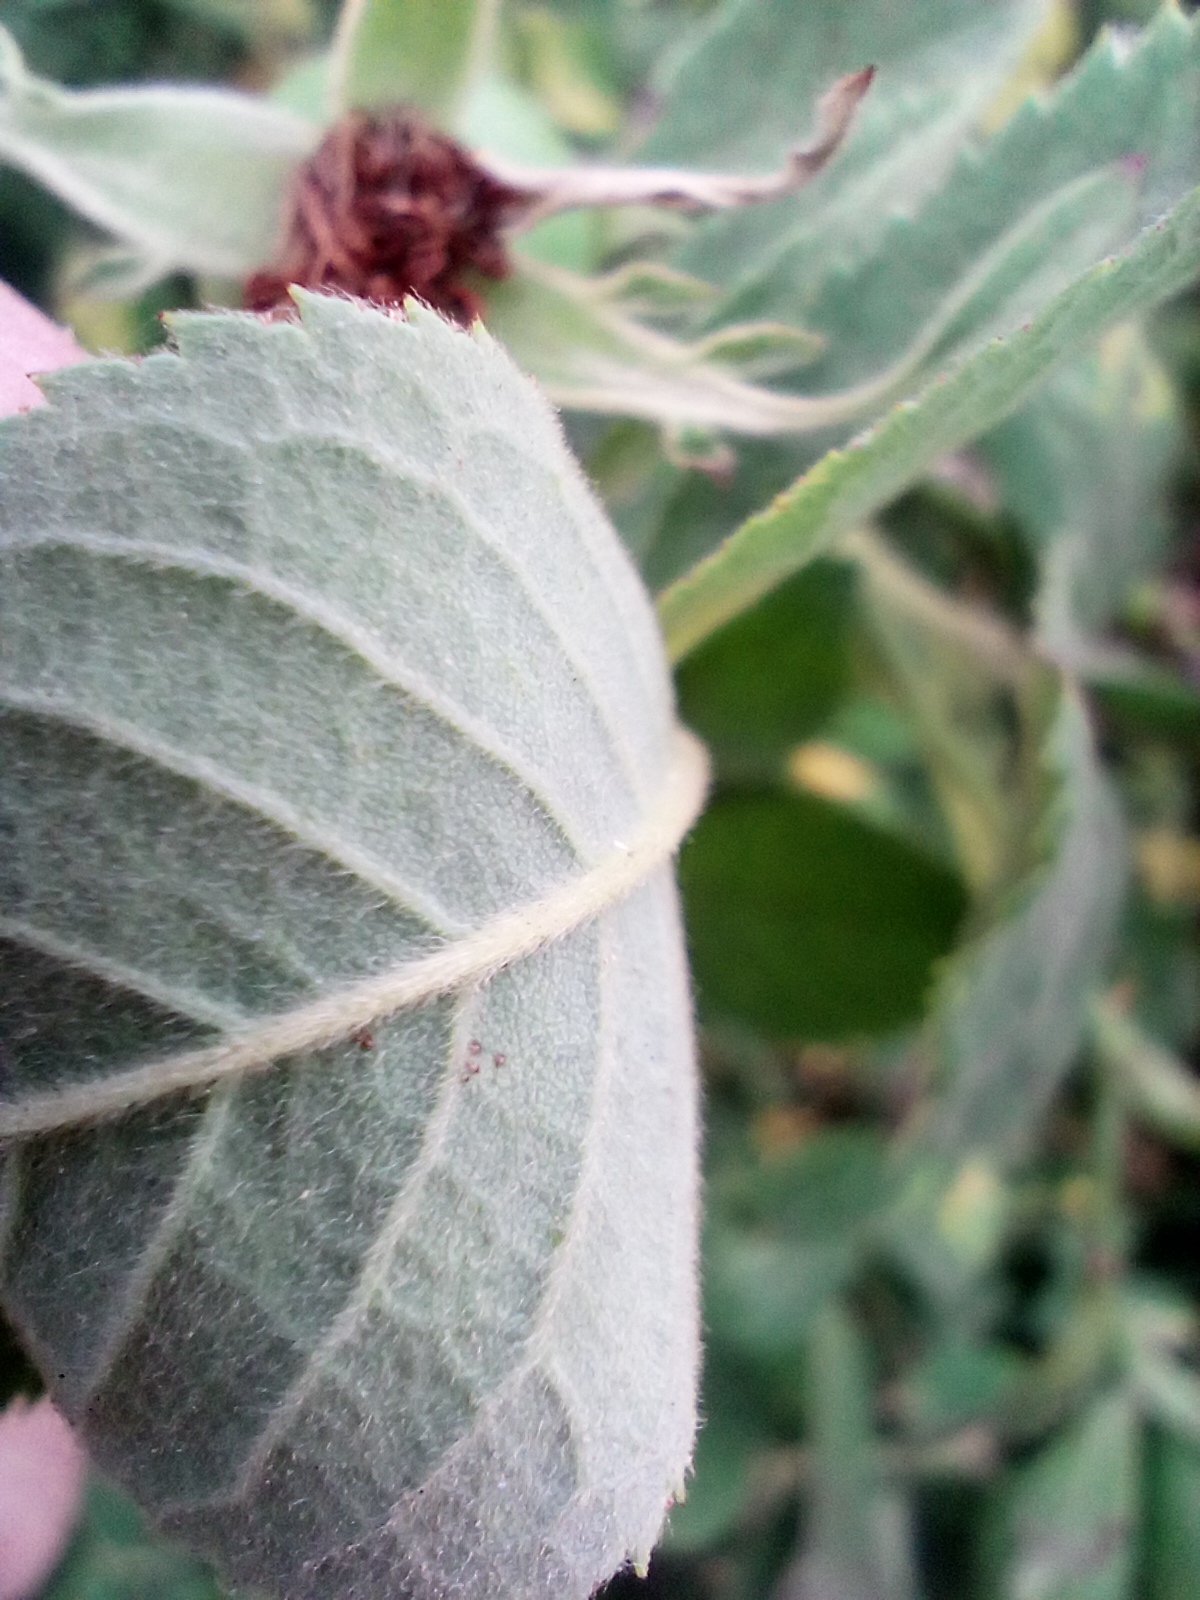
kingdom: Plantae
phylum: Tracheophyta
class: Magnoliopsida
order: Rosales
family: Rosaceae
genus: Rosa
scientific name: Rosa caesia
